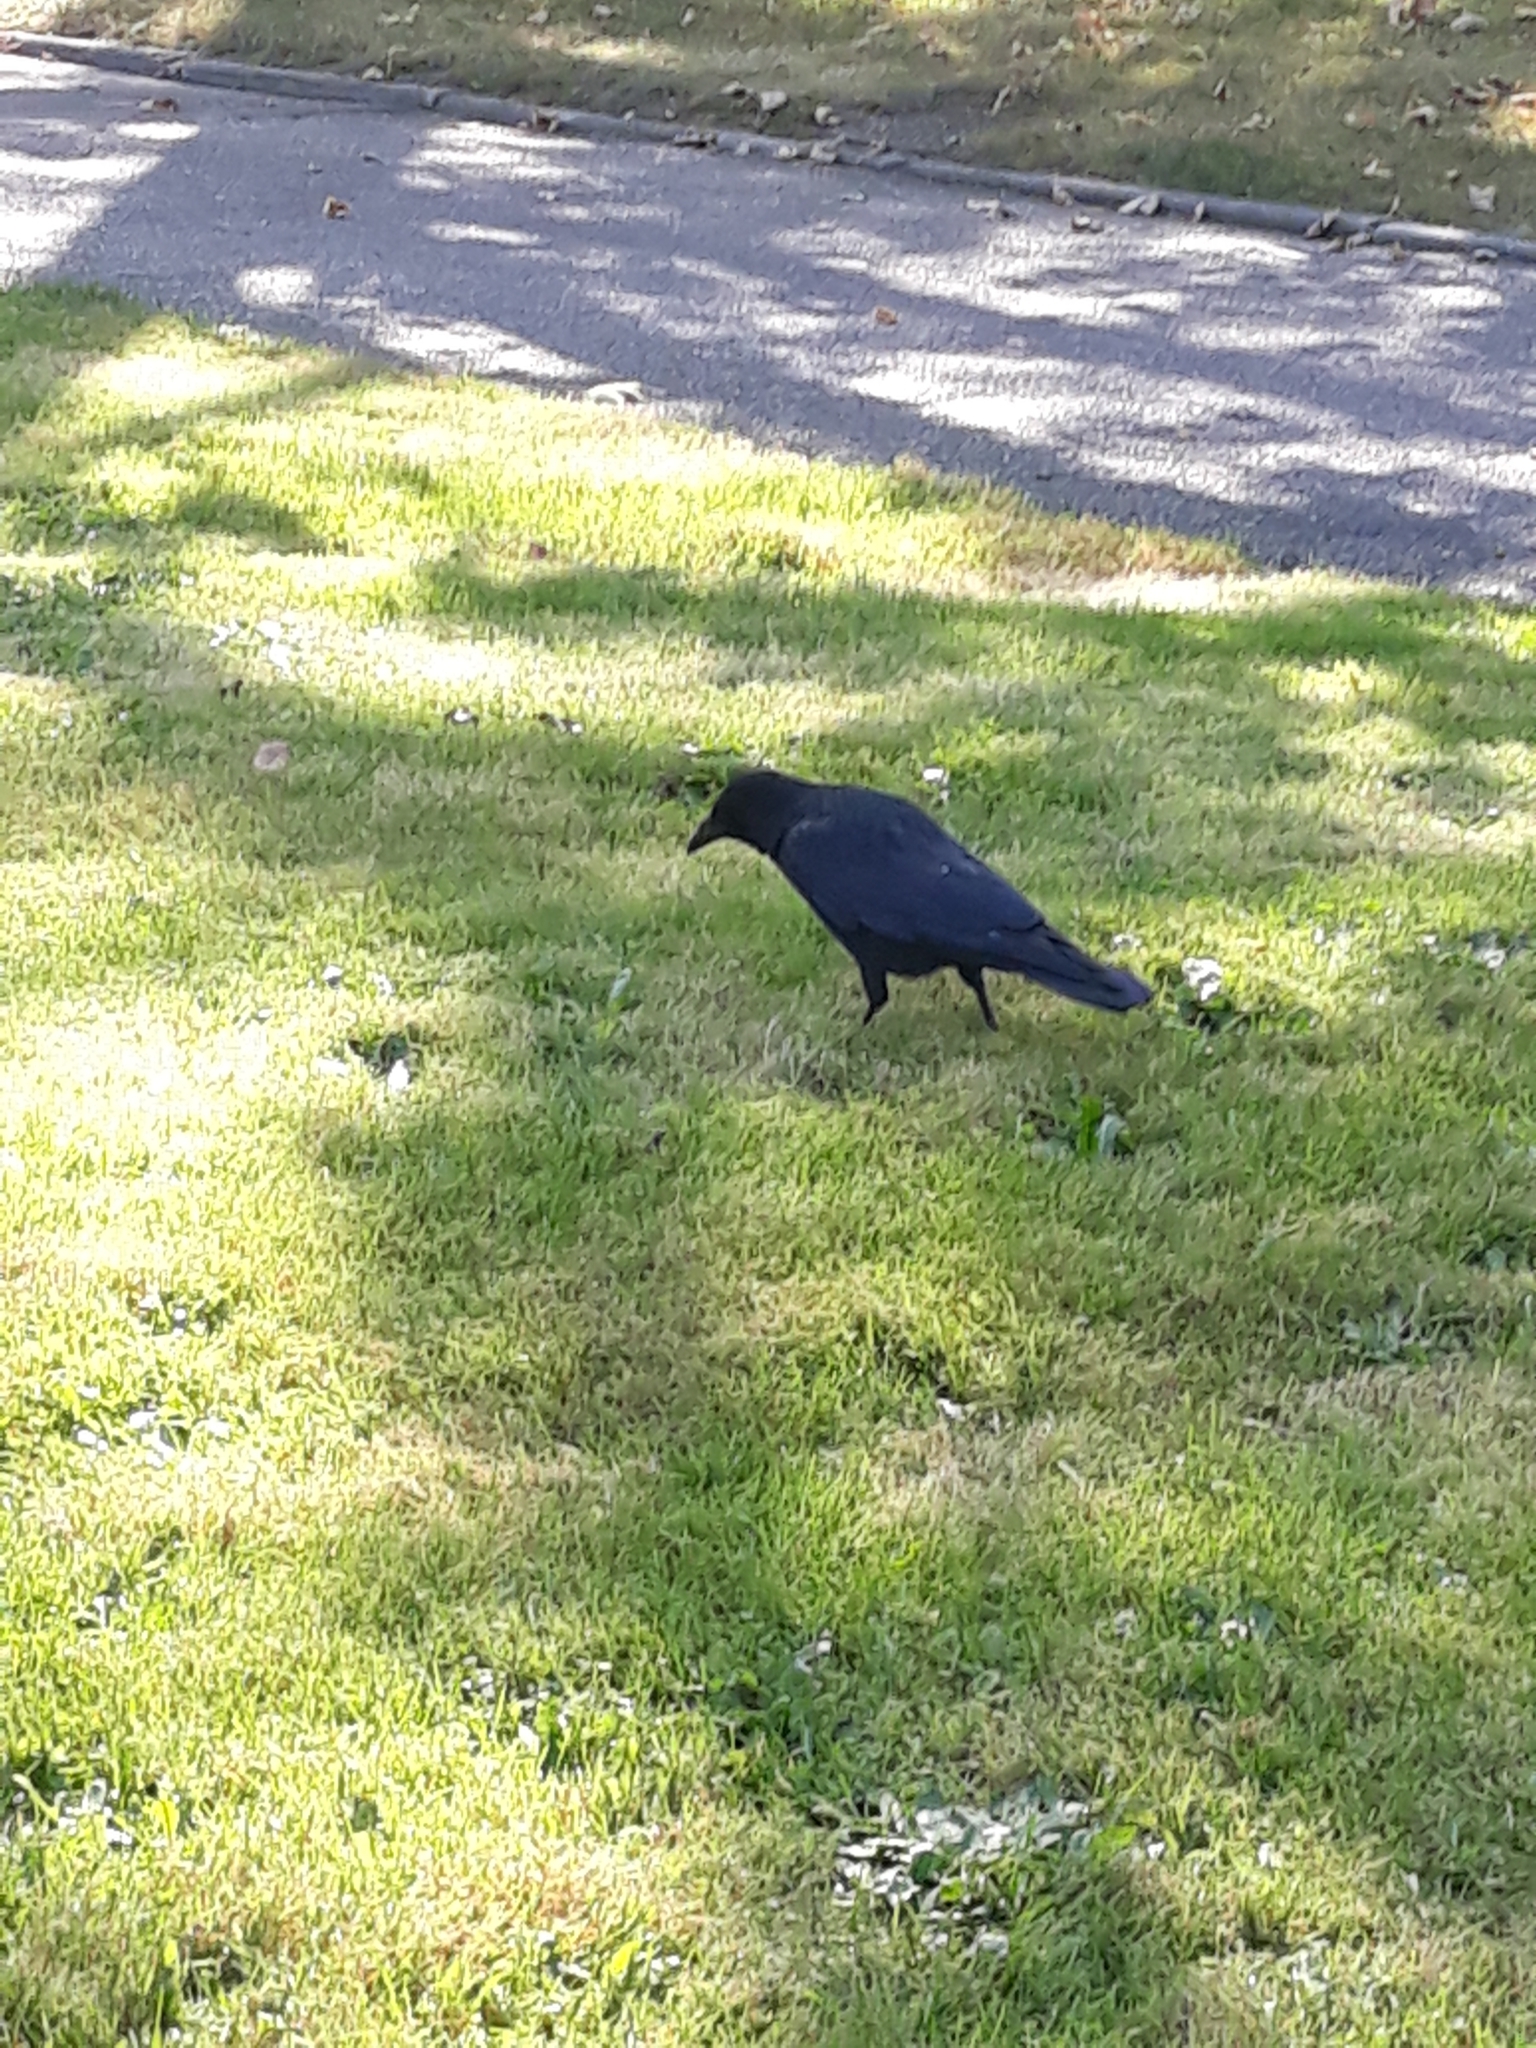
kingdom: Animalia
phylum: Chordata
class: Aves
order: Passeriformes
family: Corvidae
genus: Corvus
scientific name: Corvus corone
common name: Carrion crow
